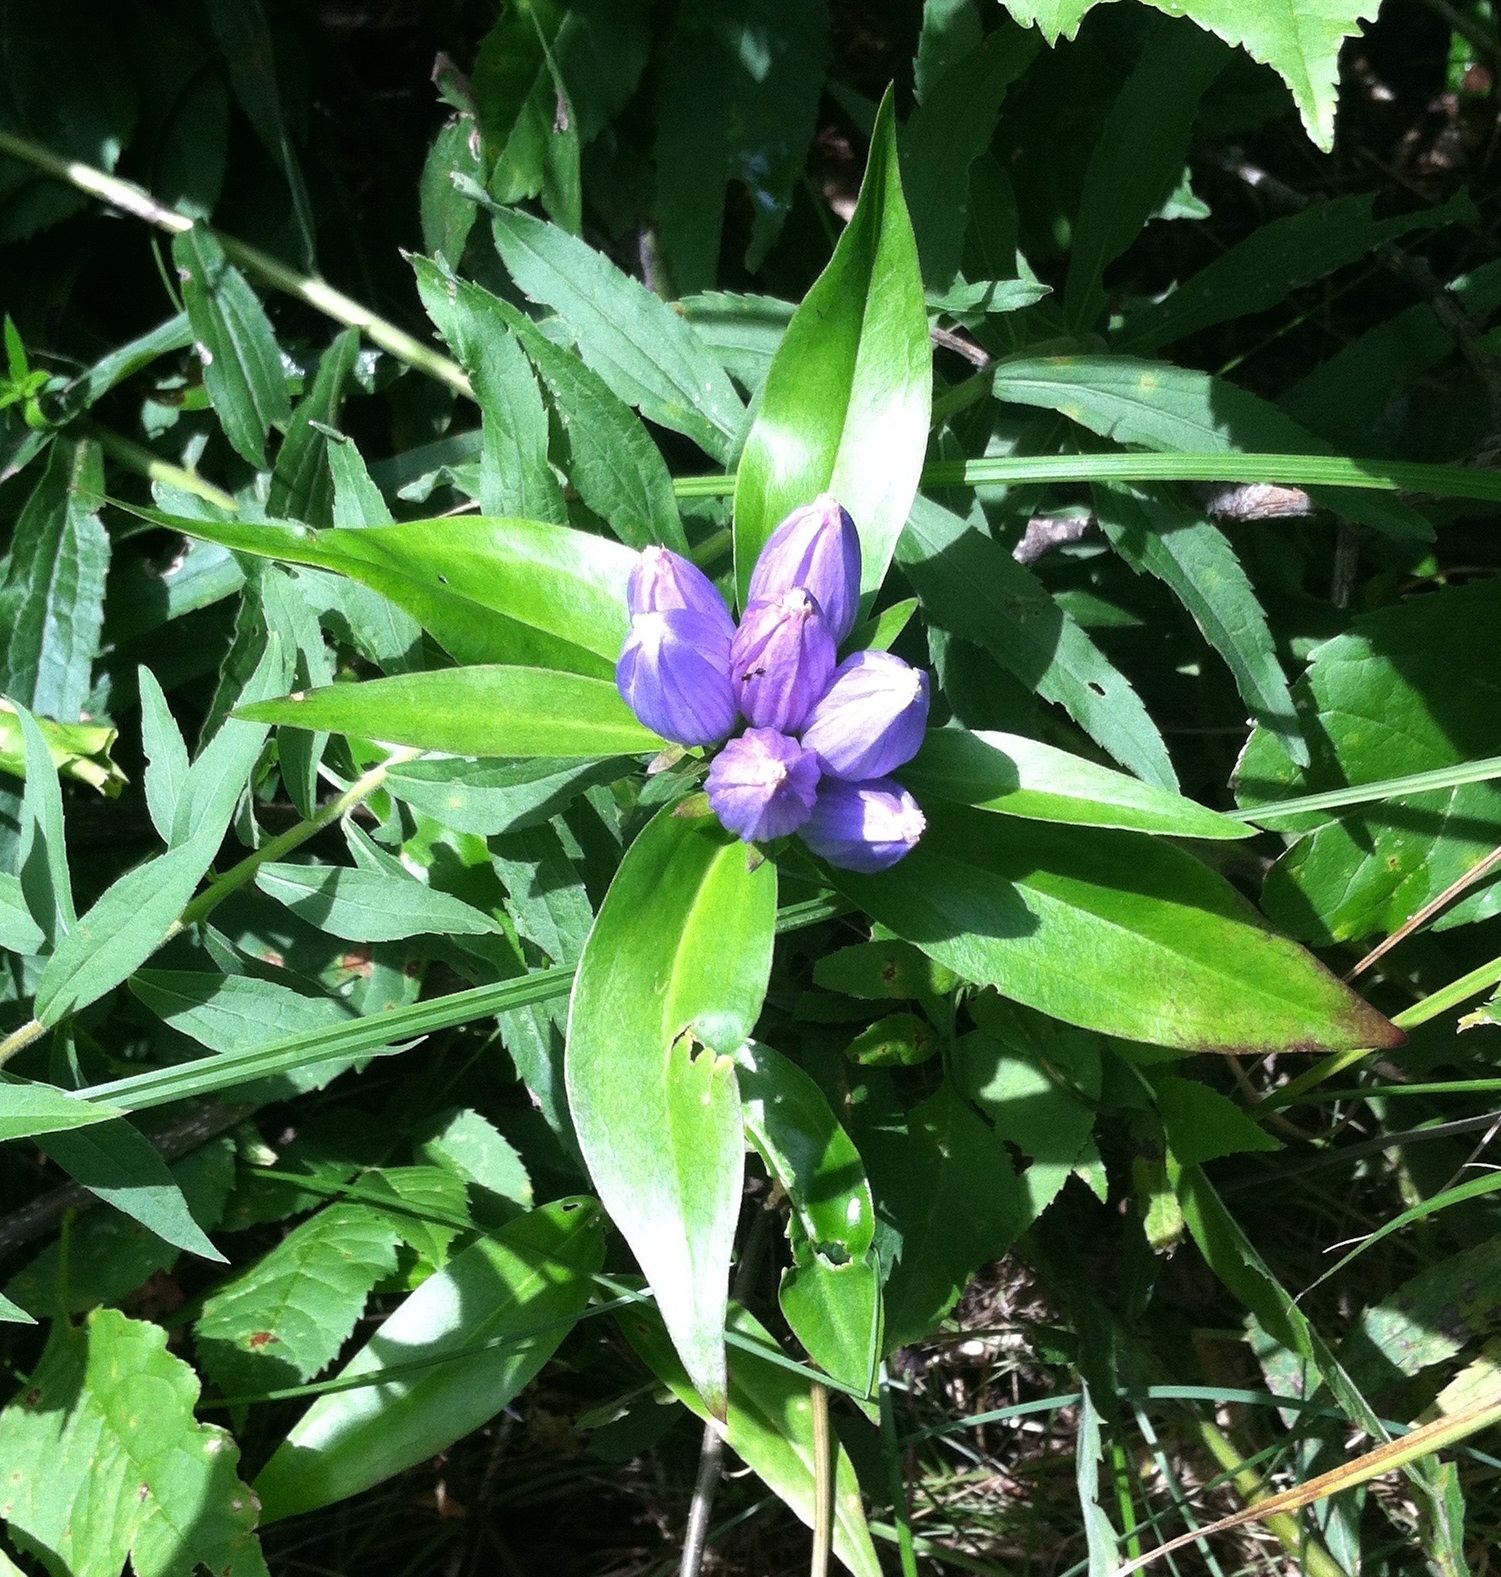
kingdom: Plantae
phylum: Tracheophyta
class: Magnoliopsida
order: Gentianales
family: Gentianaceae
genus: Gentiana
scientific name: Gentiana andrewsii
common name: Bottle gentian
